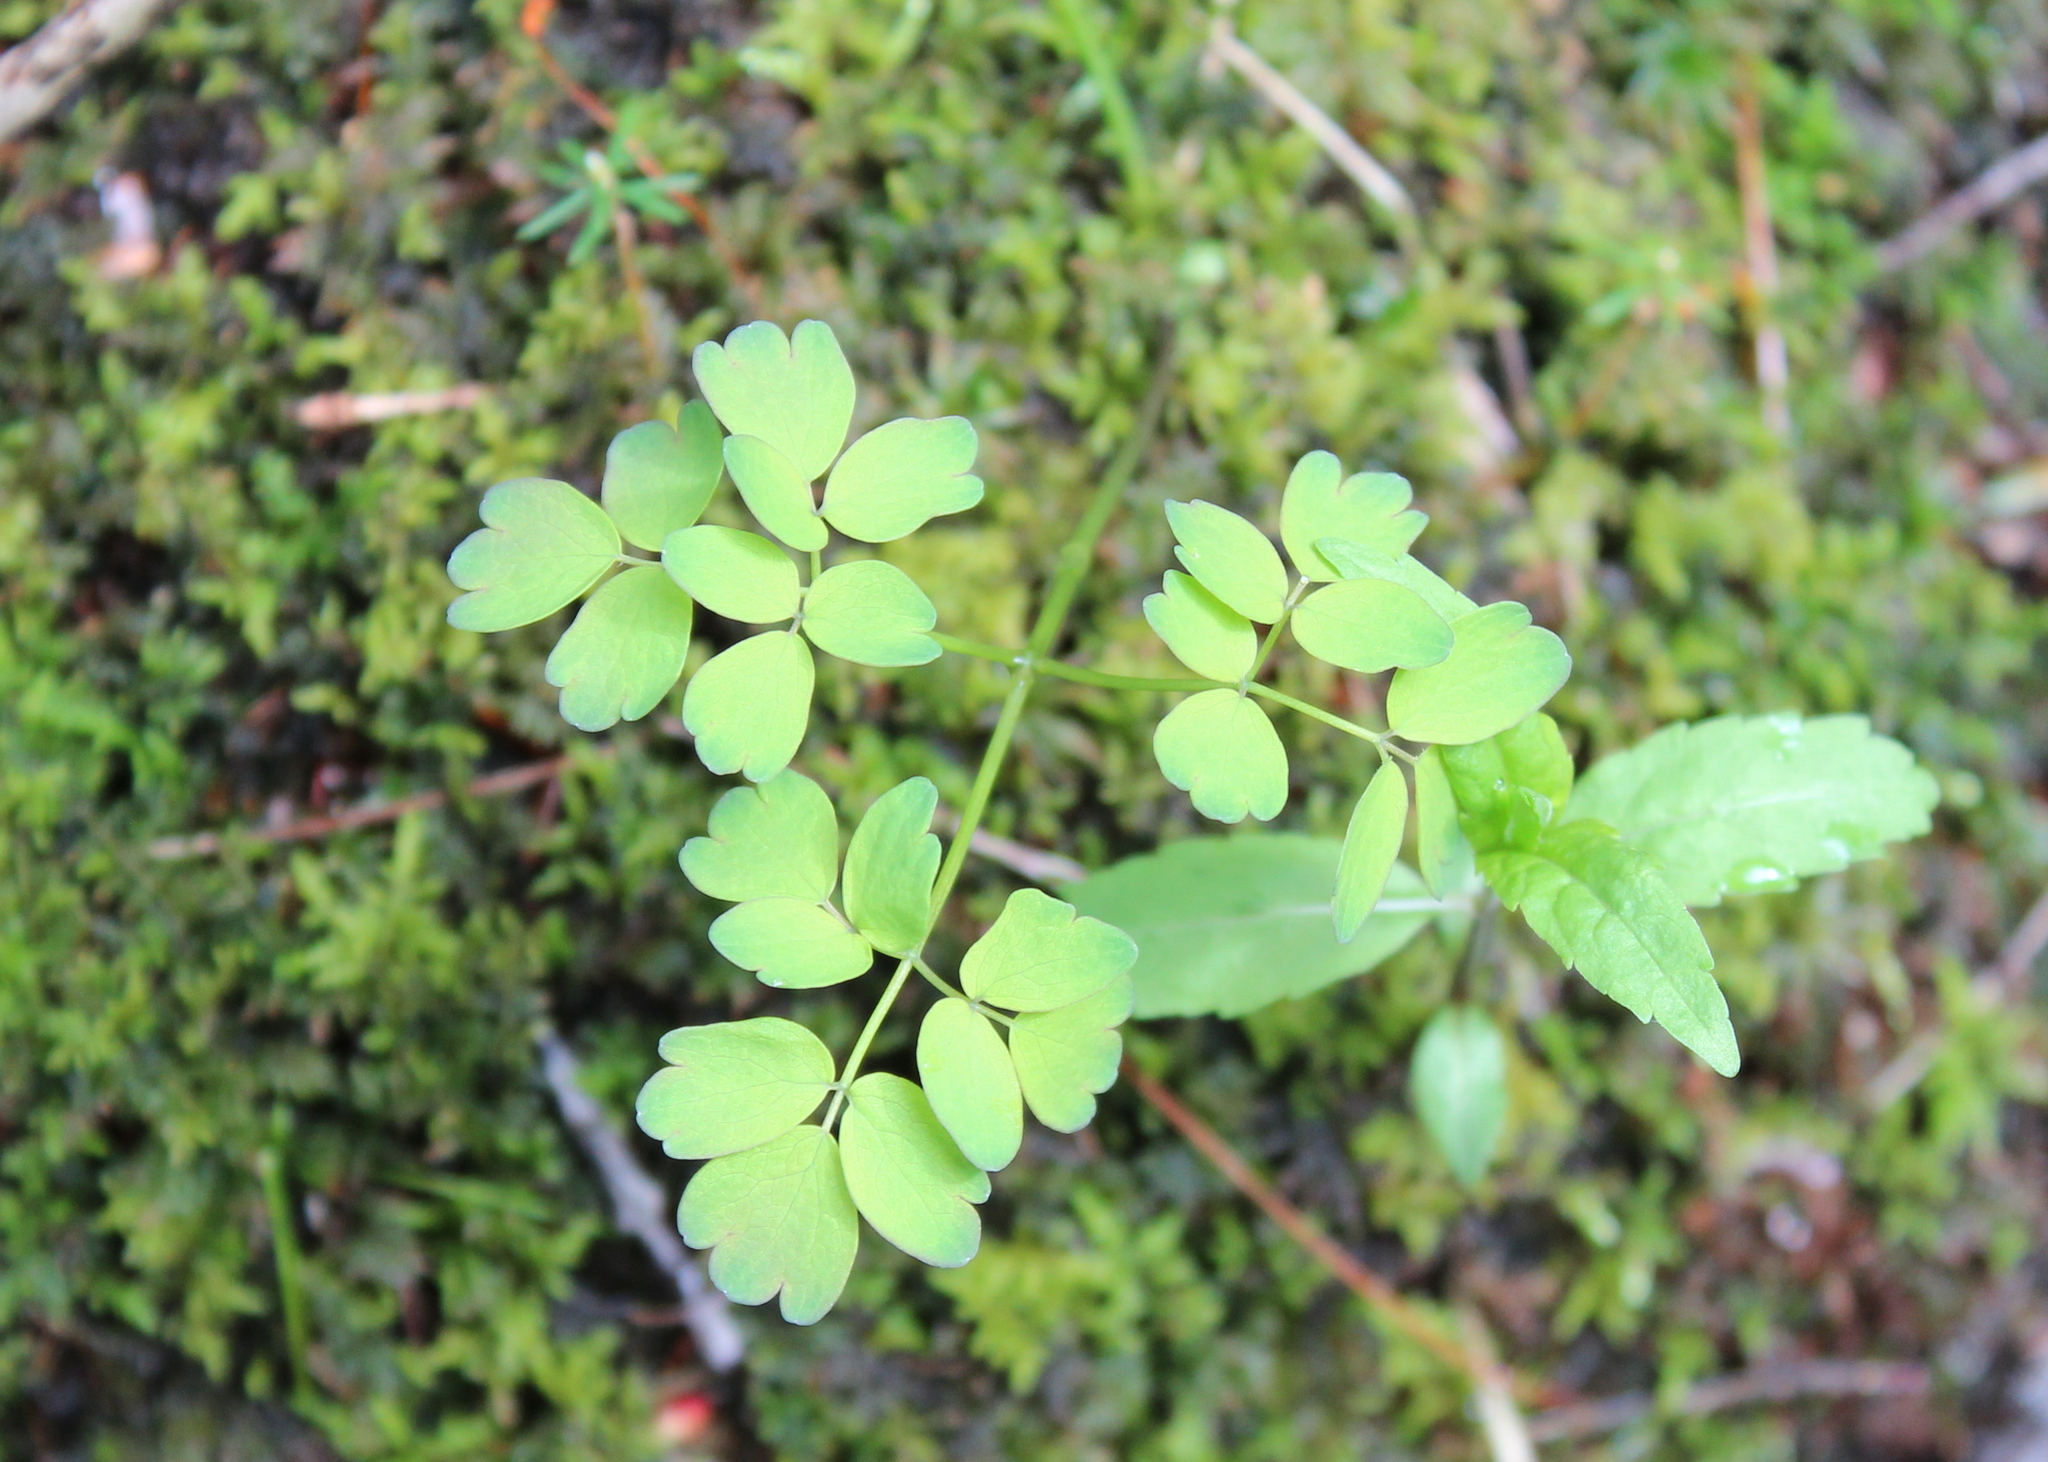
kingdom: Plantae
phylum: Tracheophyta
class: Magnoliopsida
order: Ranunculales
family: Ranunculaceae
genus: Thalictrum
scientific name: Thalictrum pubescens
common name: King-of-the-meadow
